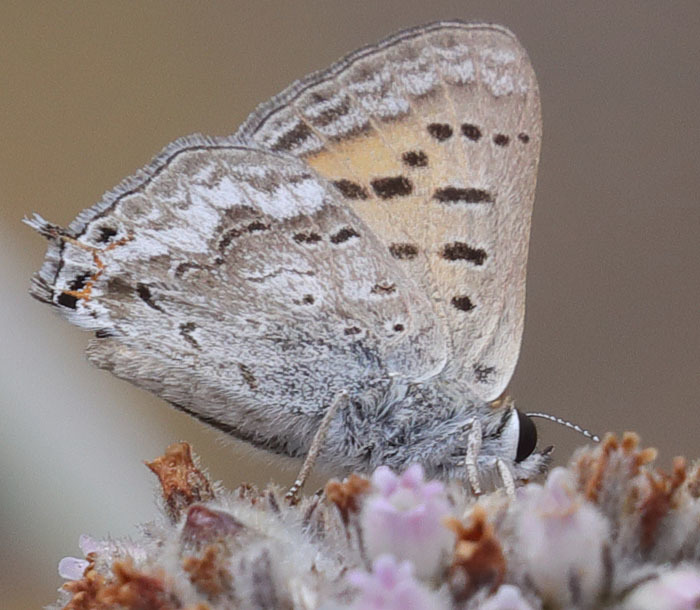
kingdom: Animalia
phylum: Arthropoda
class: Insecta
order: Lepidoptera
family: Lycaenidae
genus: Tharsalea
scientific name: Tharsalea arota
